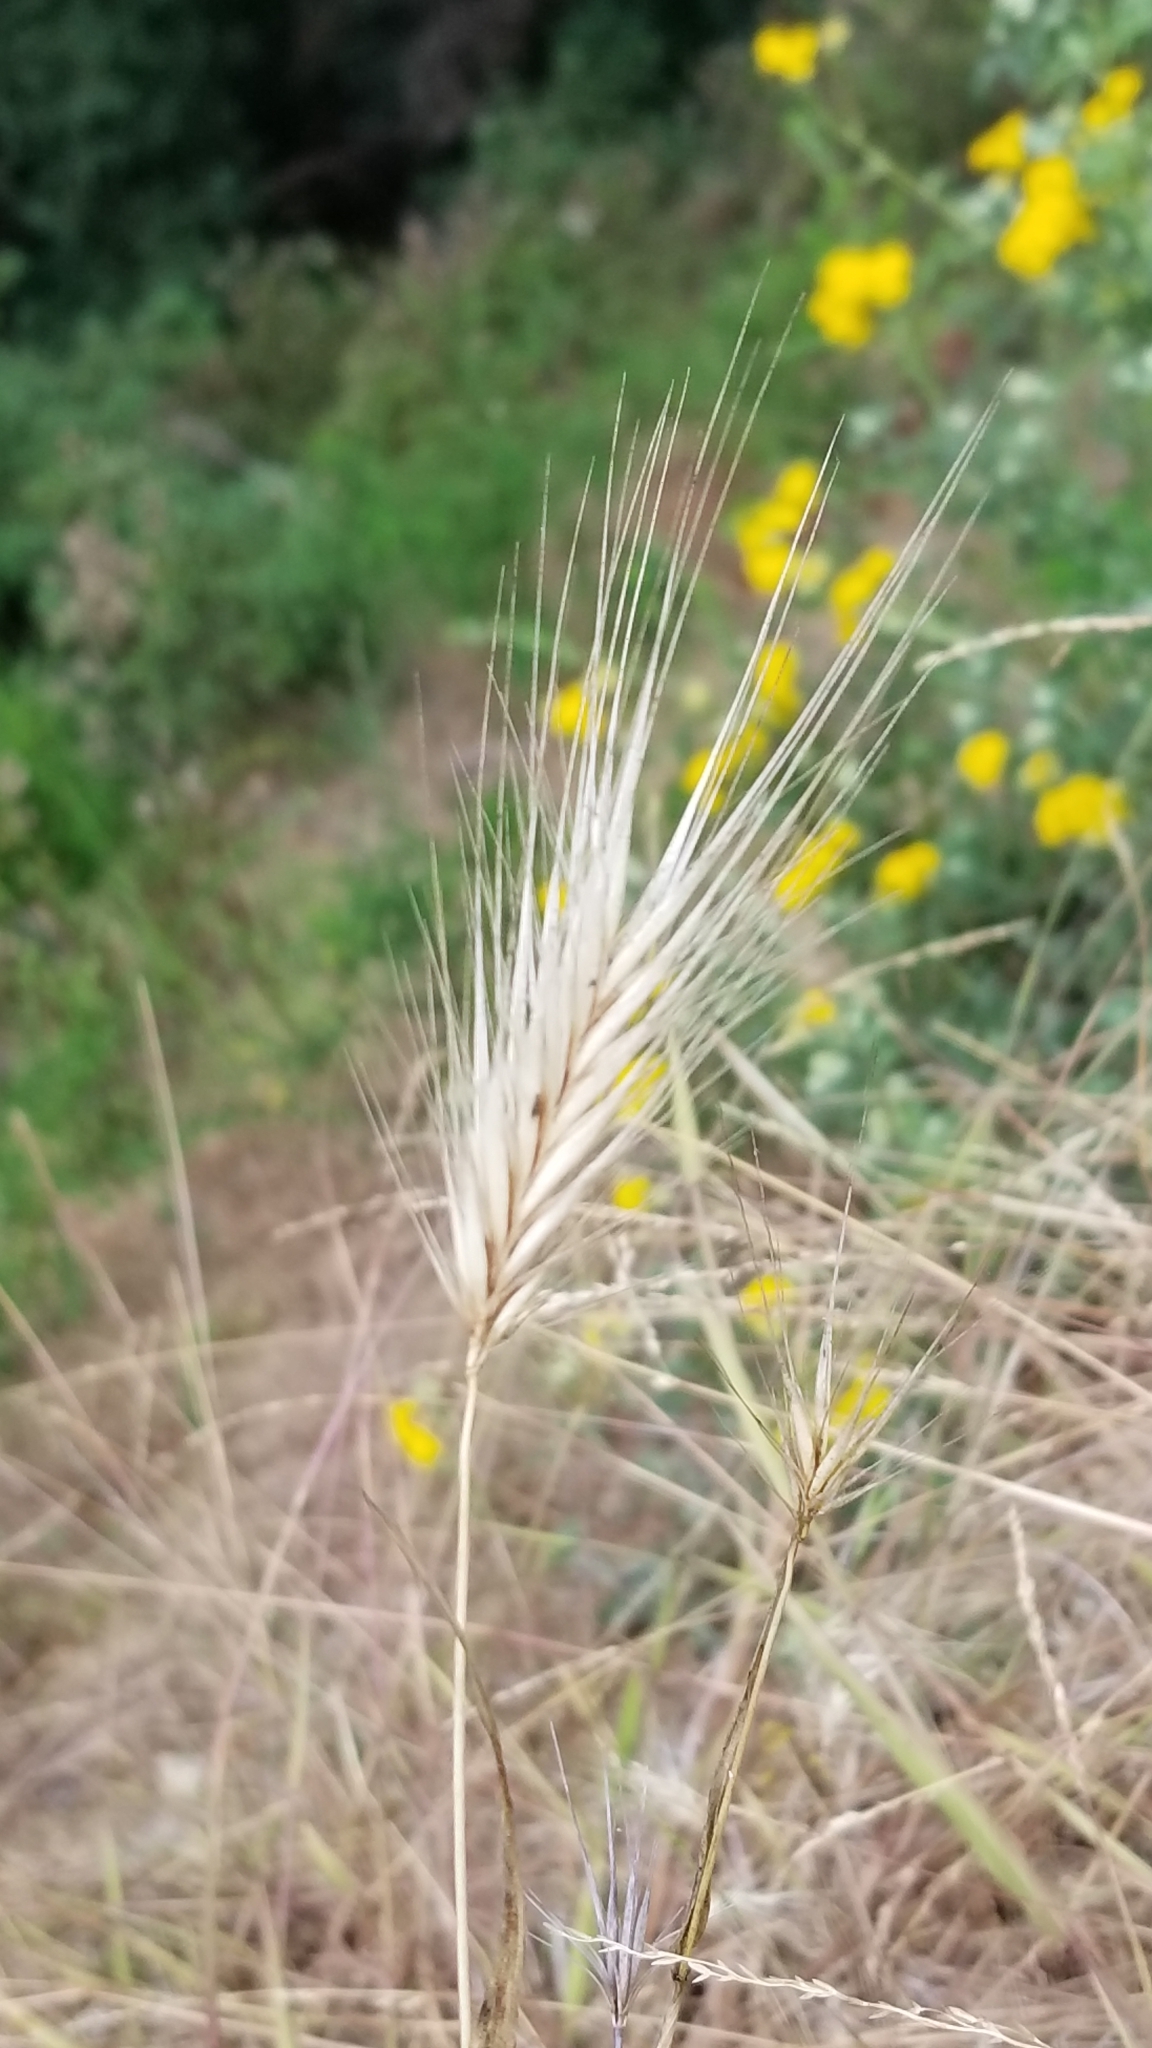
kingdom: Plantae
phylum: Tracheophyta
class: Liliopsida
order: Poales
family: Poaceae
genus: Hordeum
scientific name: Hordeum murinum
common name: Wall barley
